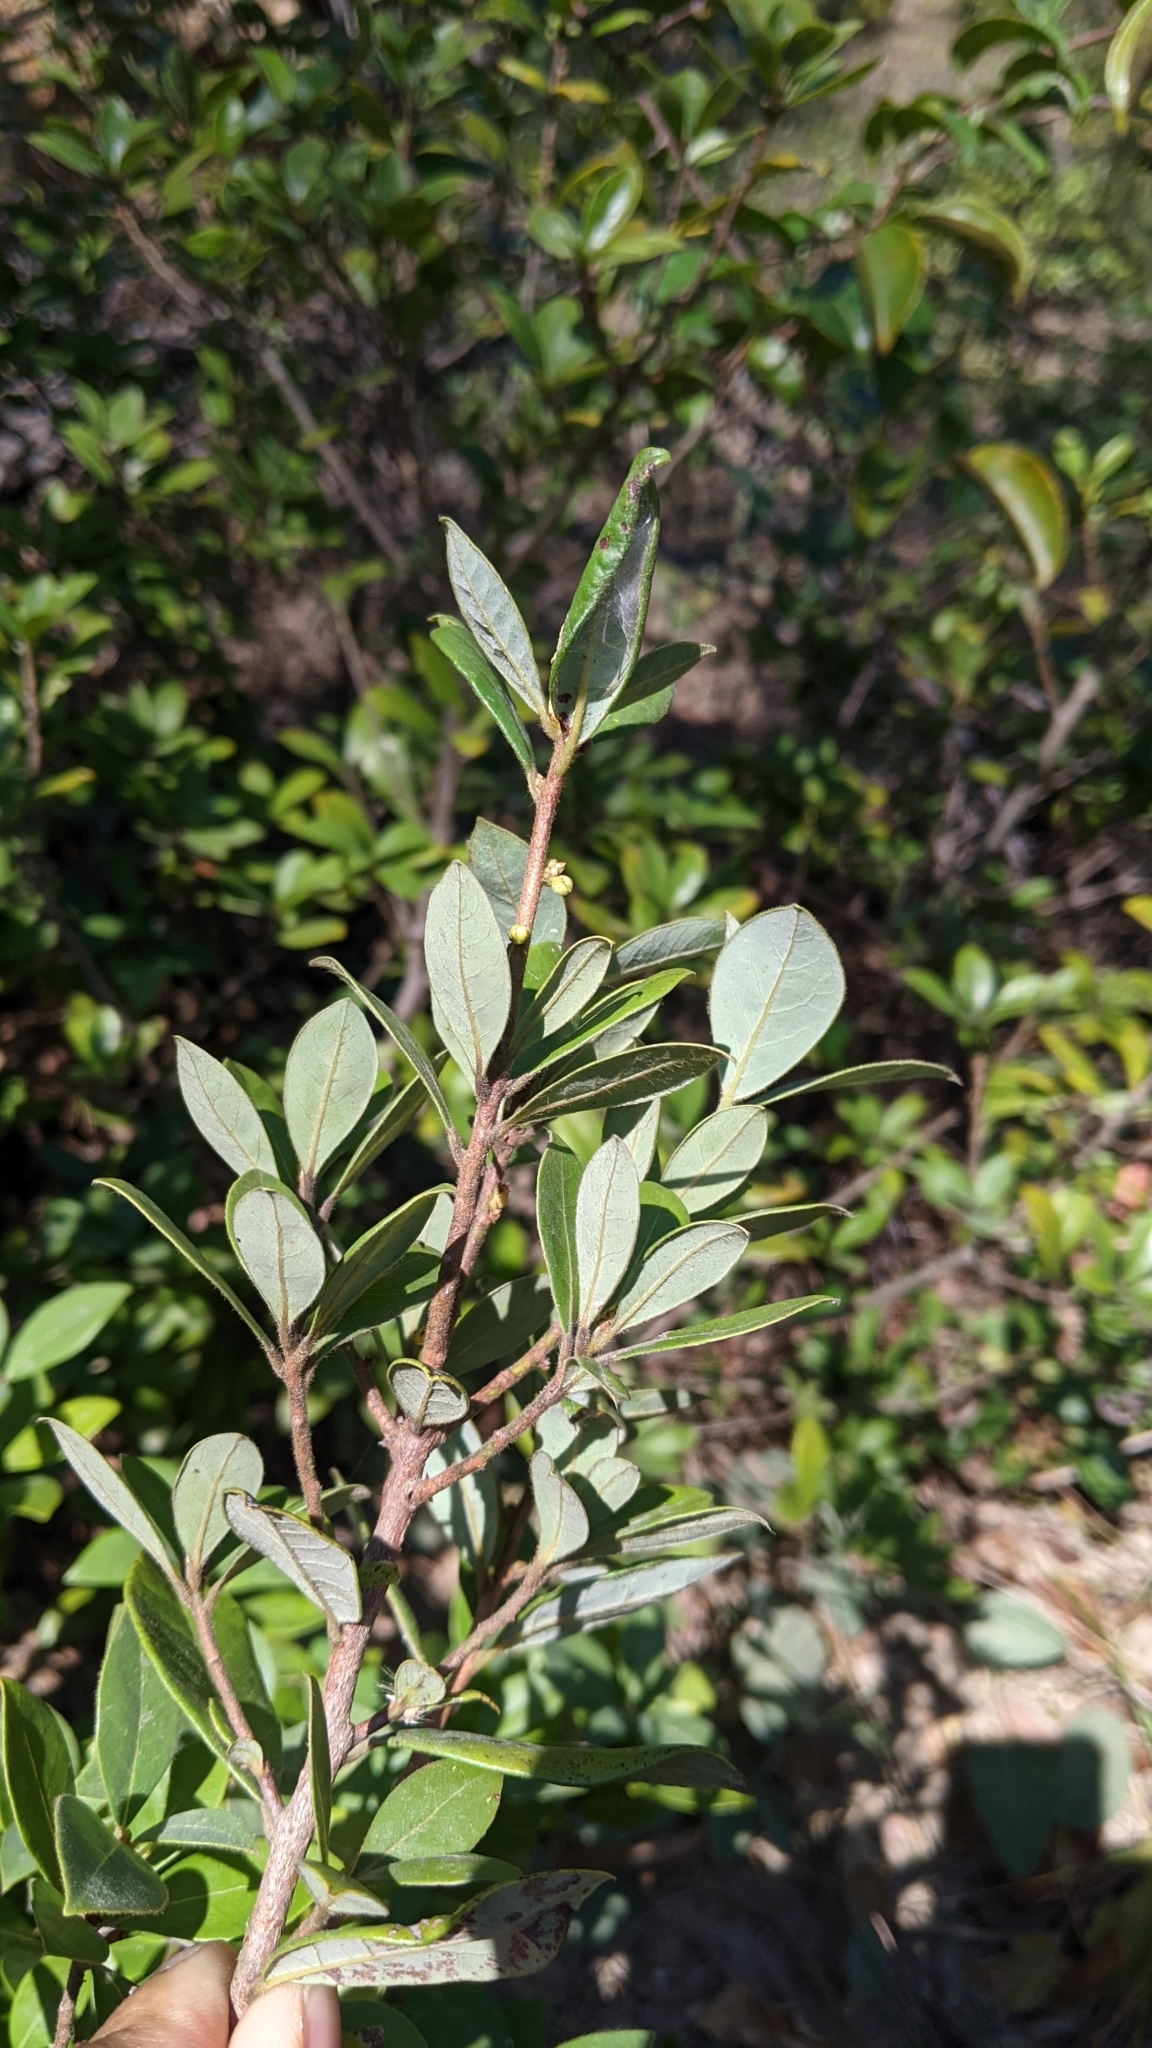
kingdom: Plantae
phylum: Tracheophyta
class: Magnoliopsida
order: Laurales
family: Lauraceae
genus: Litsea
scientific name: Litsea rotundifolia
